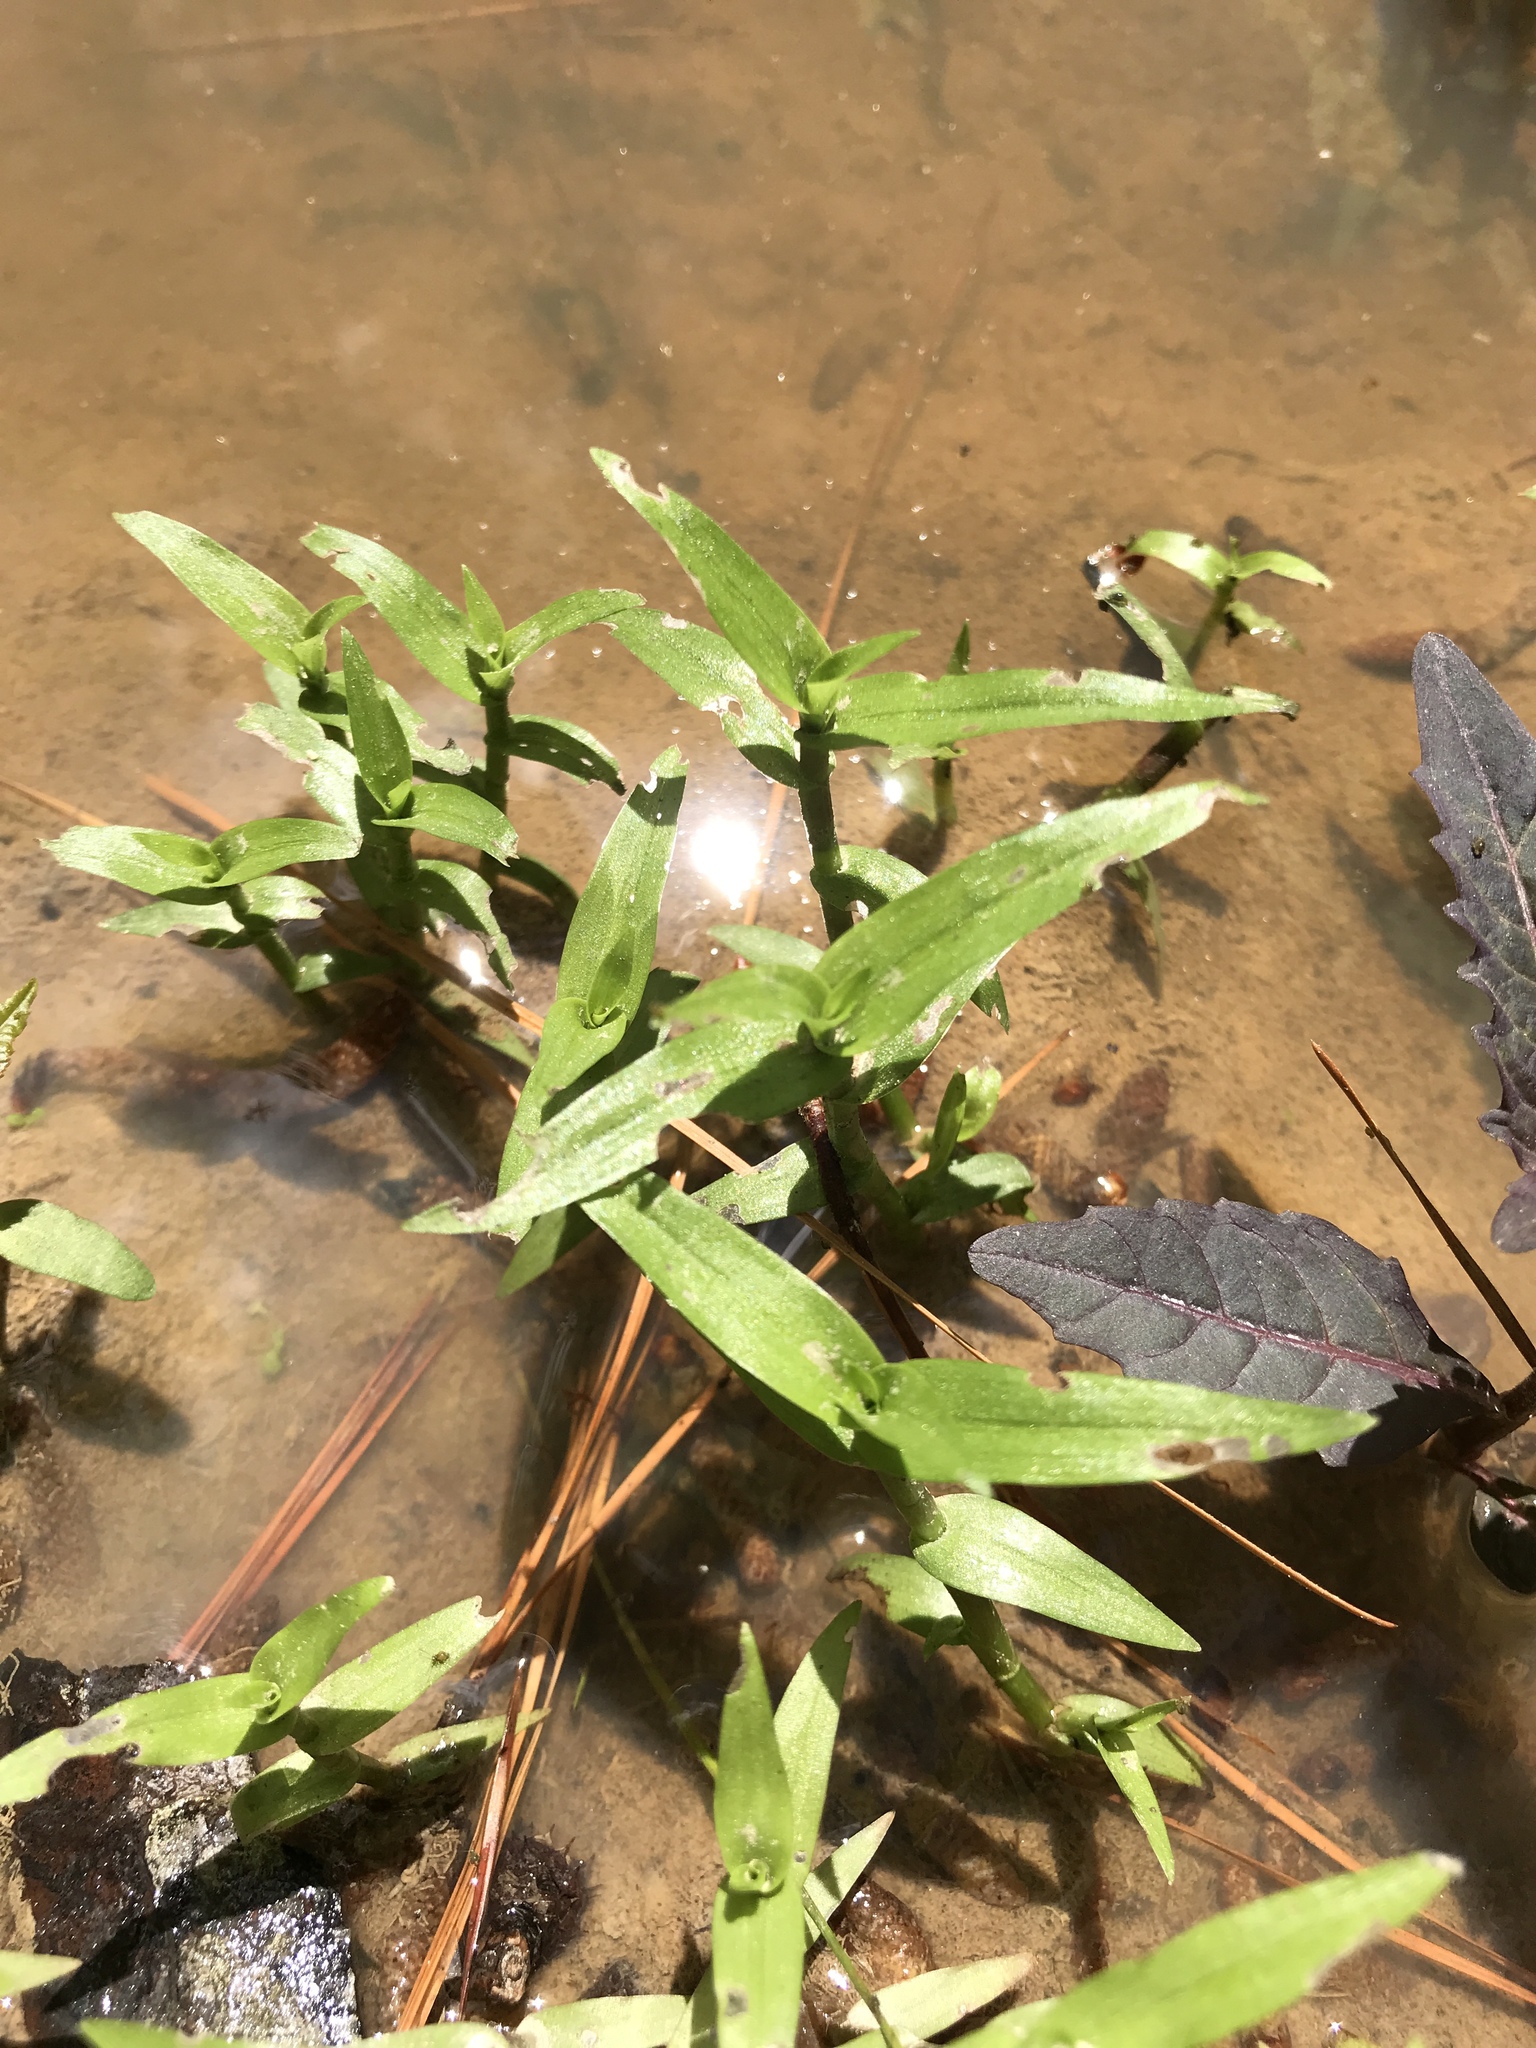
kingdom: Plantae
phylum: Tracheophyta
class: Liliopsida
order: Commelinales
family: Commelinaceae
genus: Murdannia
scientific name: Murdannia keisak
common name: Wartremoving herb
